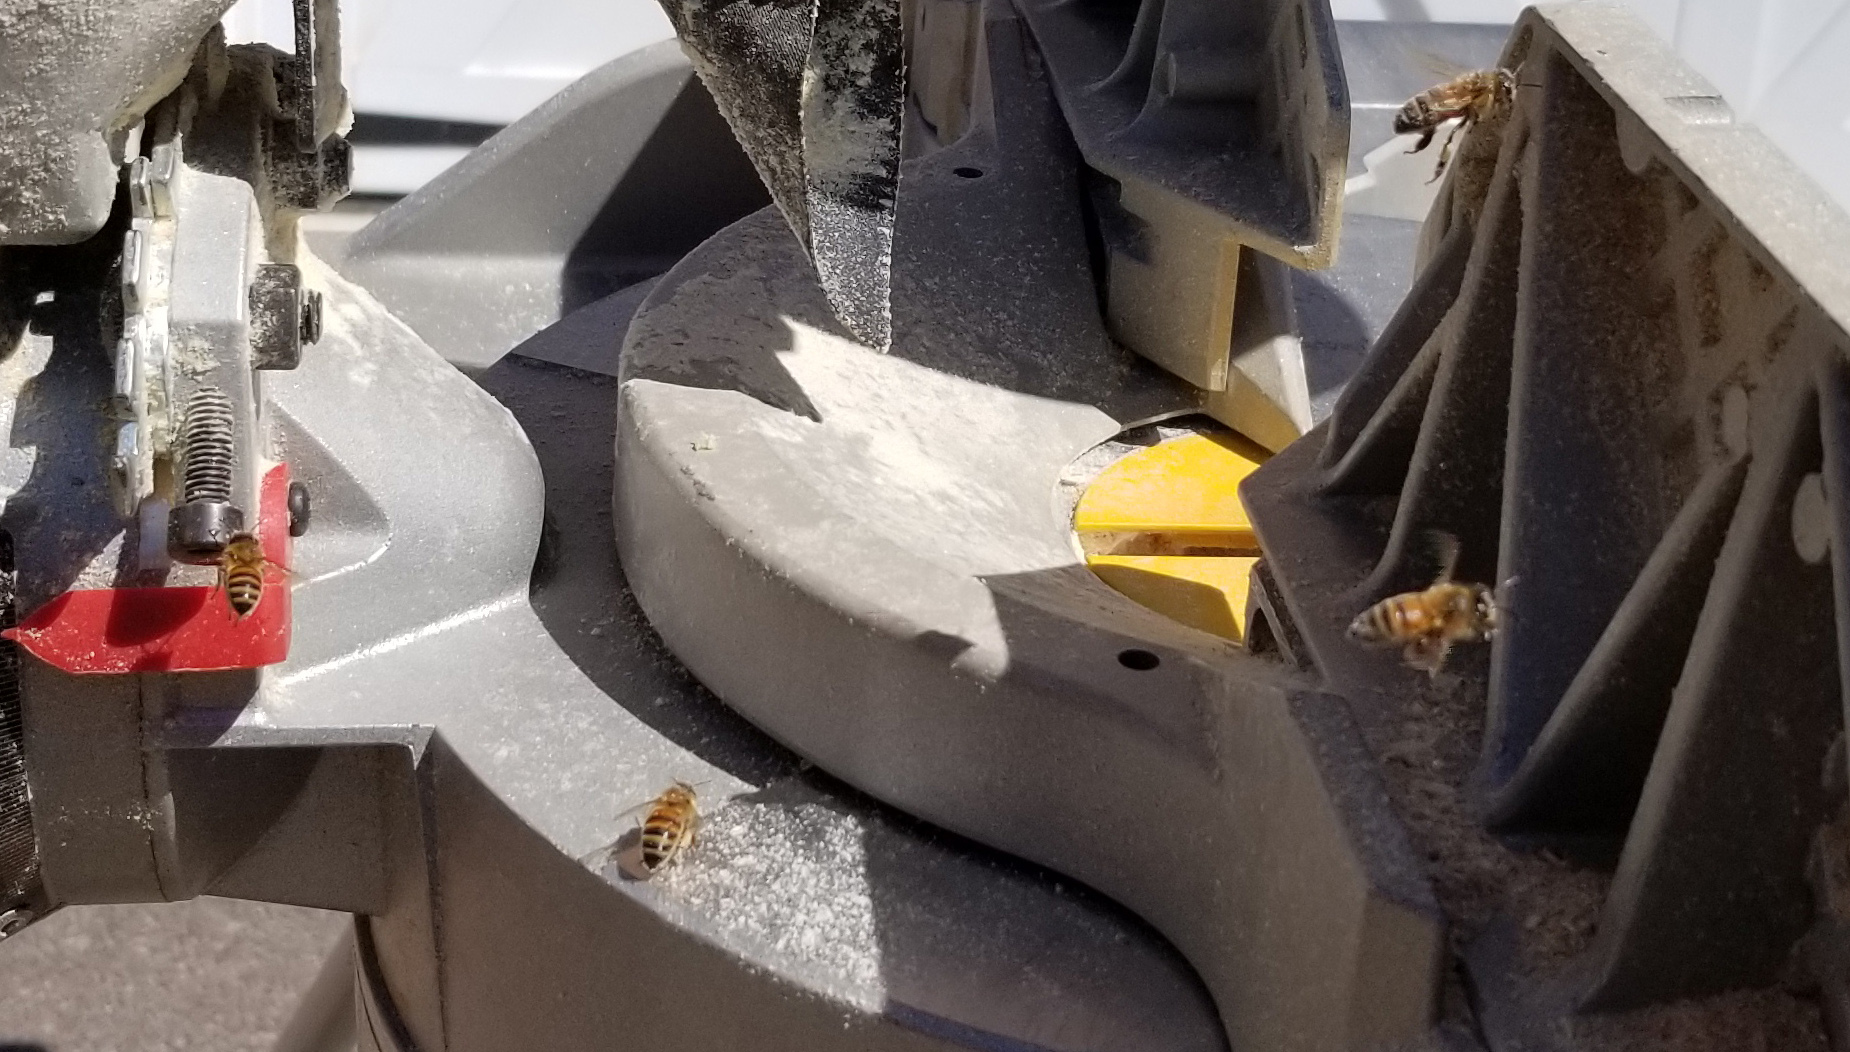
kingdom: Animalia
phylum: Arthropoda
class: Insecta
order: Hymenoptera
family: Apidae
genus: Apis
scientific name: Apis mellifera
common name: Honey bee
